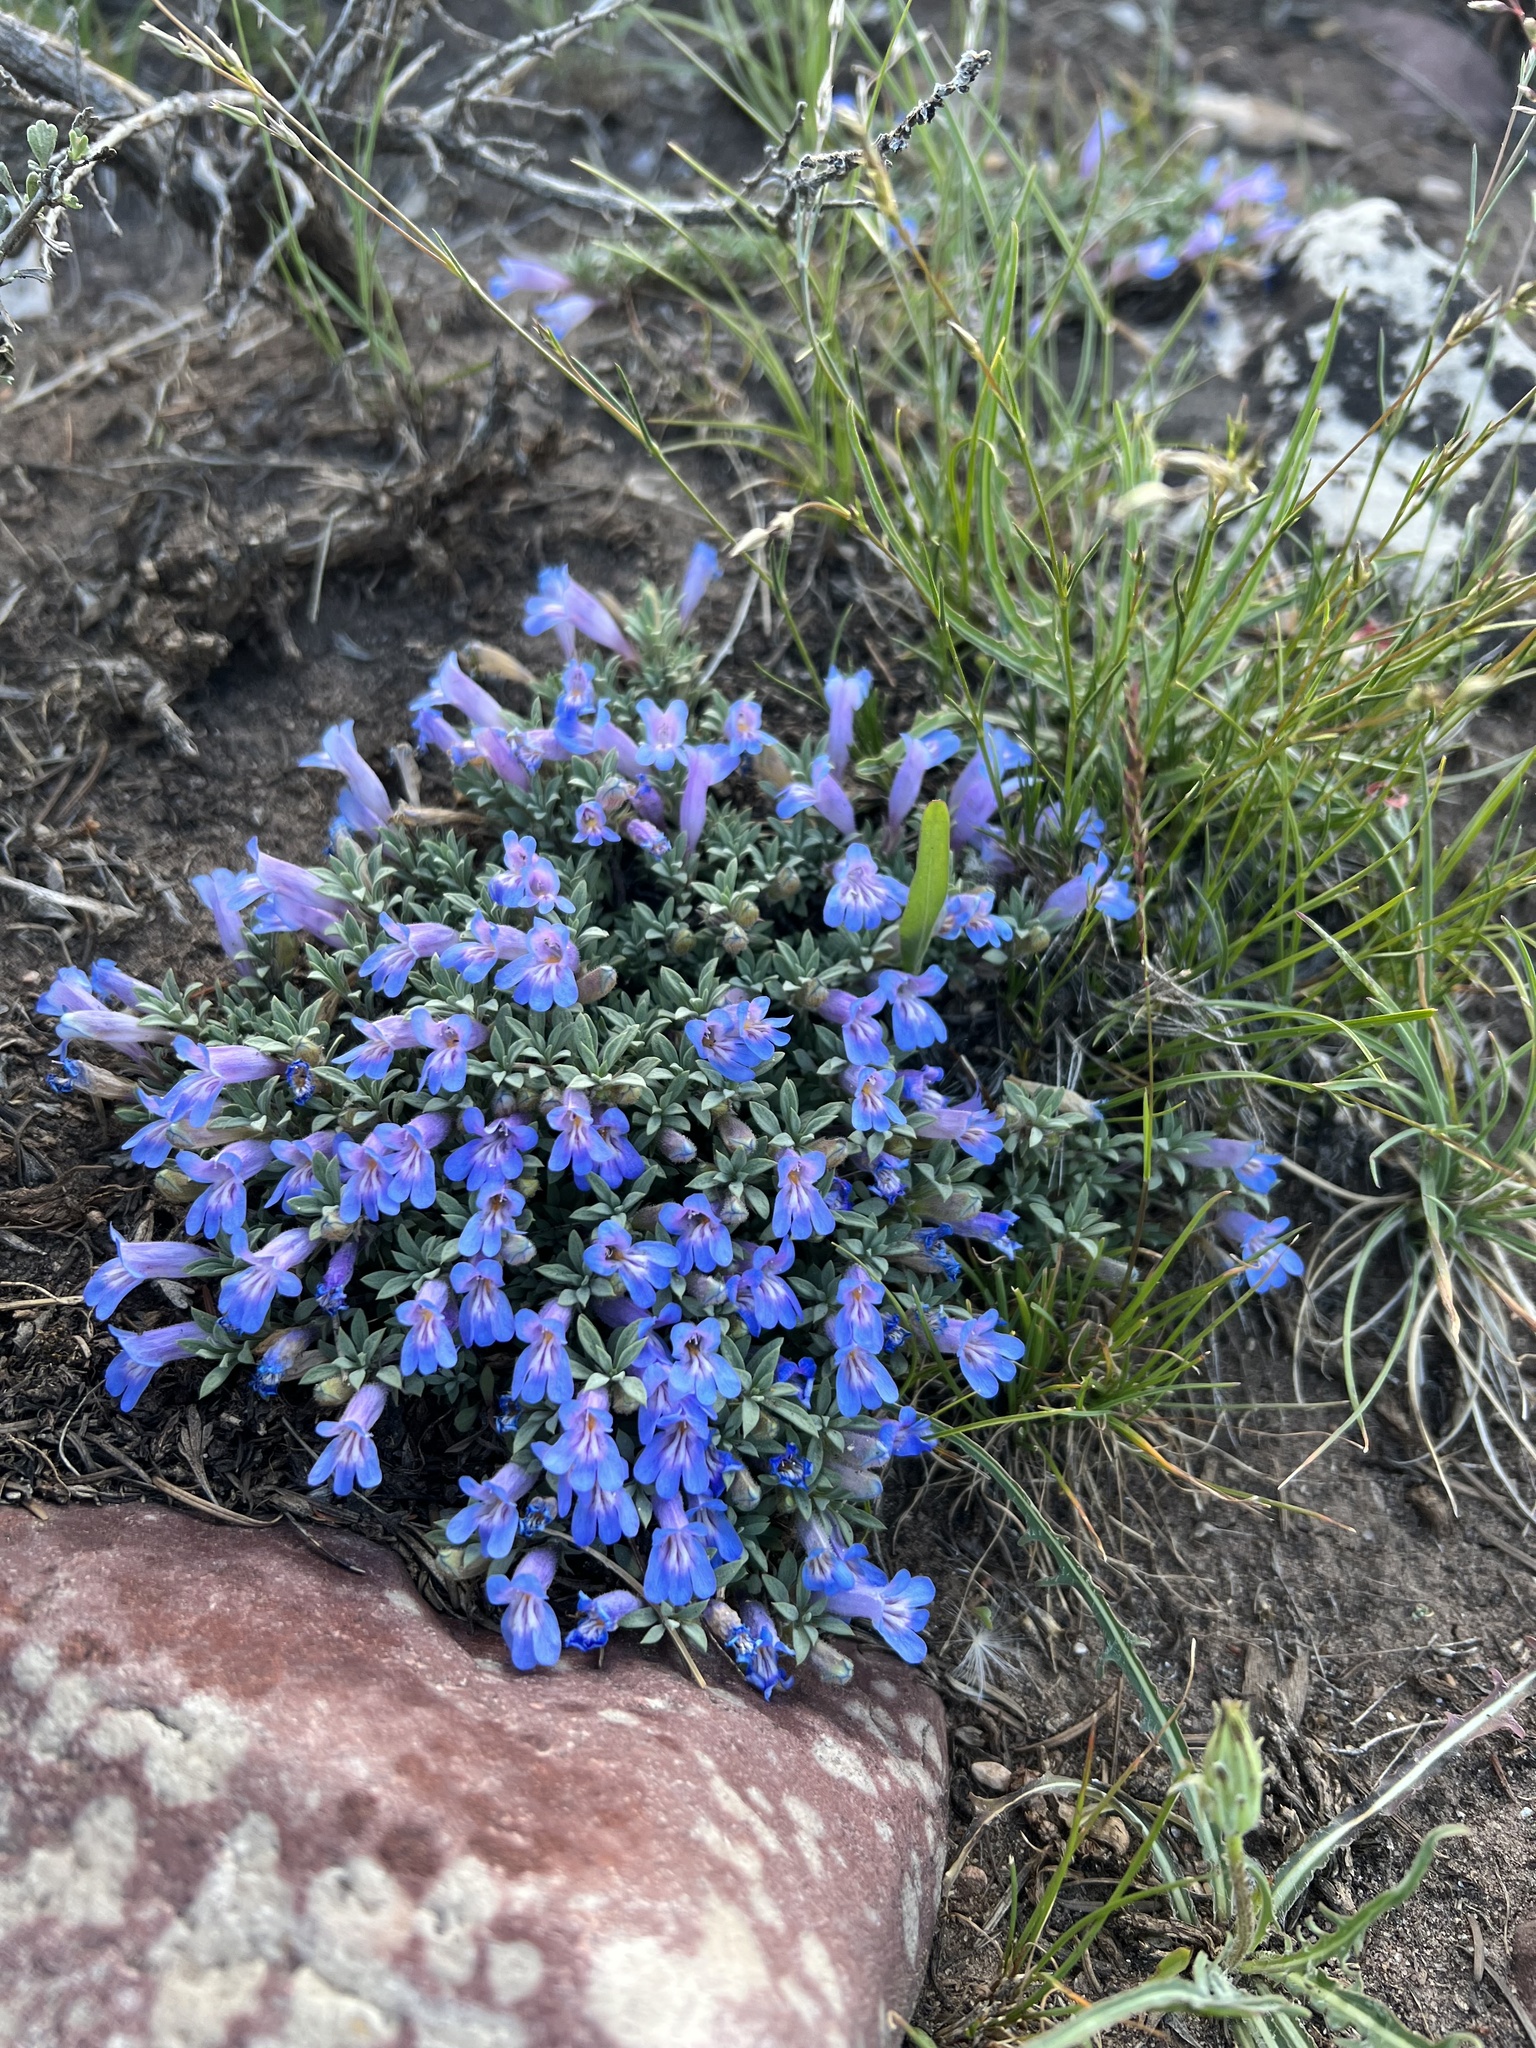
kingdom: Plantae
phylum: Tracheophyta
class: Magnoliopsida
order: Lamiales
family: Plantaginaceae
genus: Penstemon
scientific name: Penstemon caespitosus
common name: Mat penstemon
